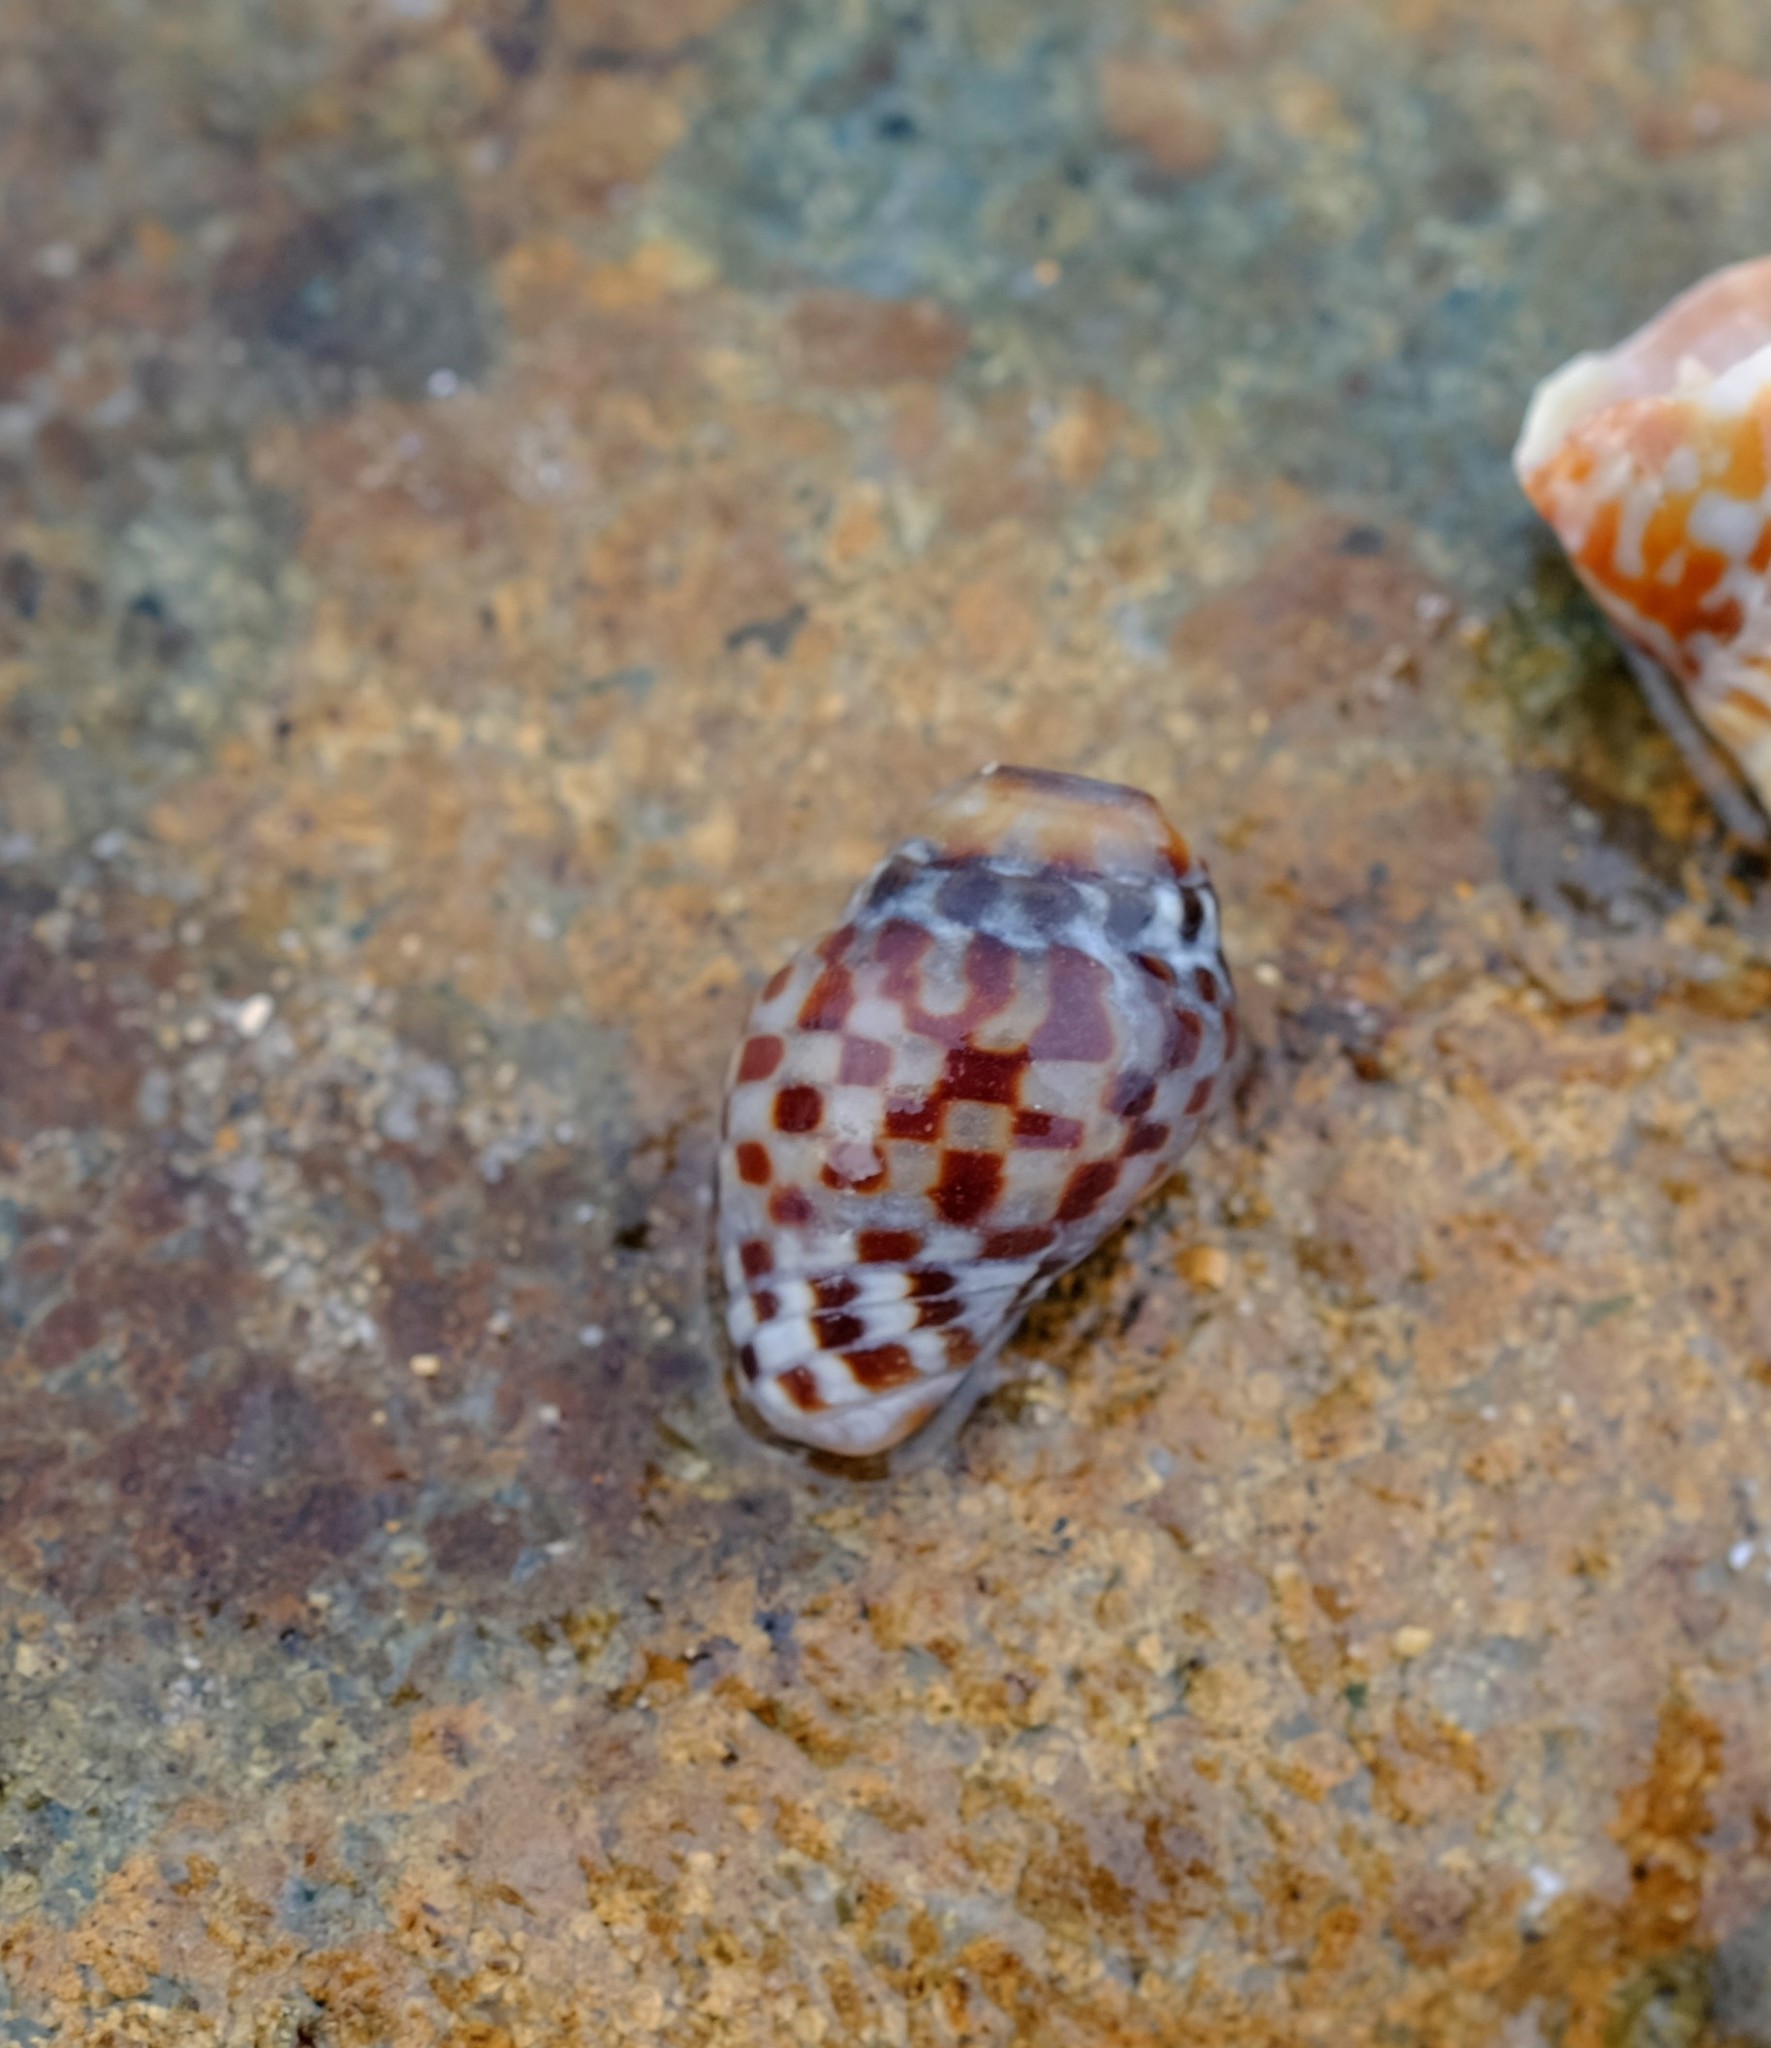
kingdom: Animalia
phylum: Mollusca
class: Gastropoda
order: Neogastropoda
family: Cominellidae
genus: Cominella
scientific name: Cominella lineolata
